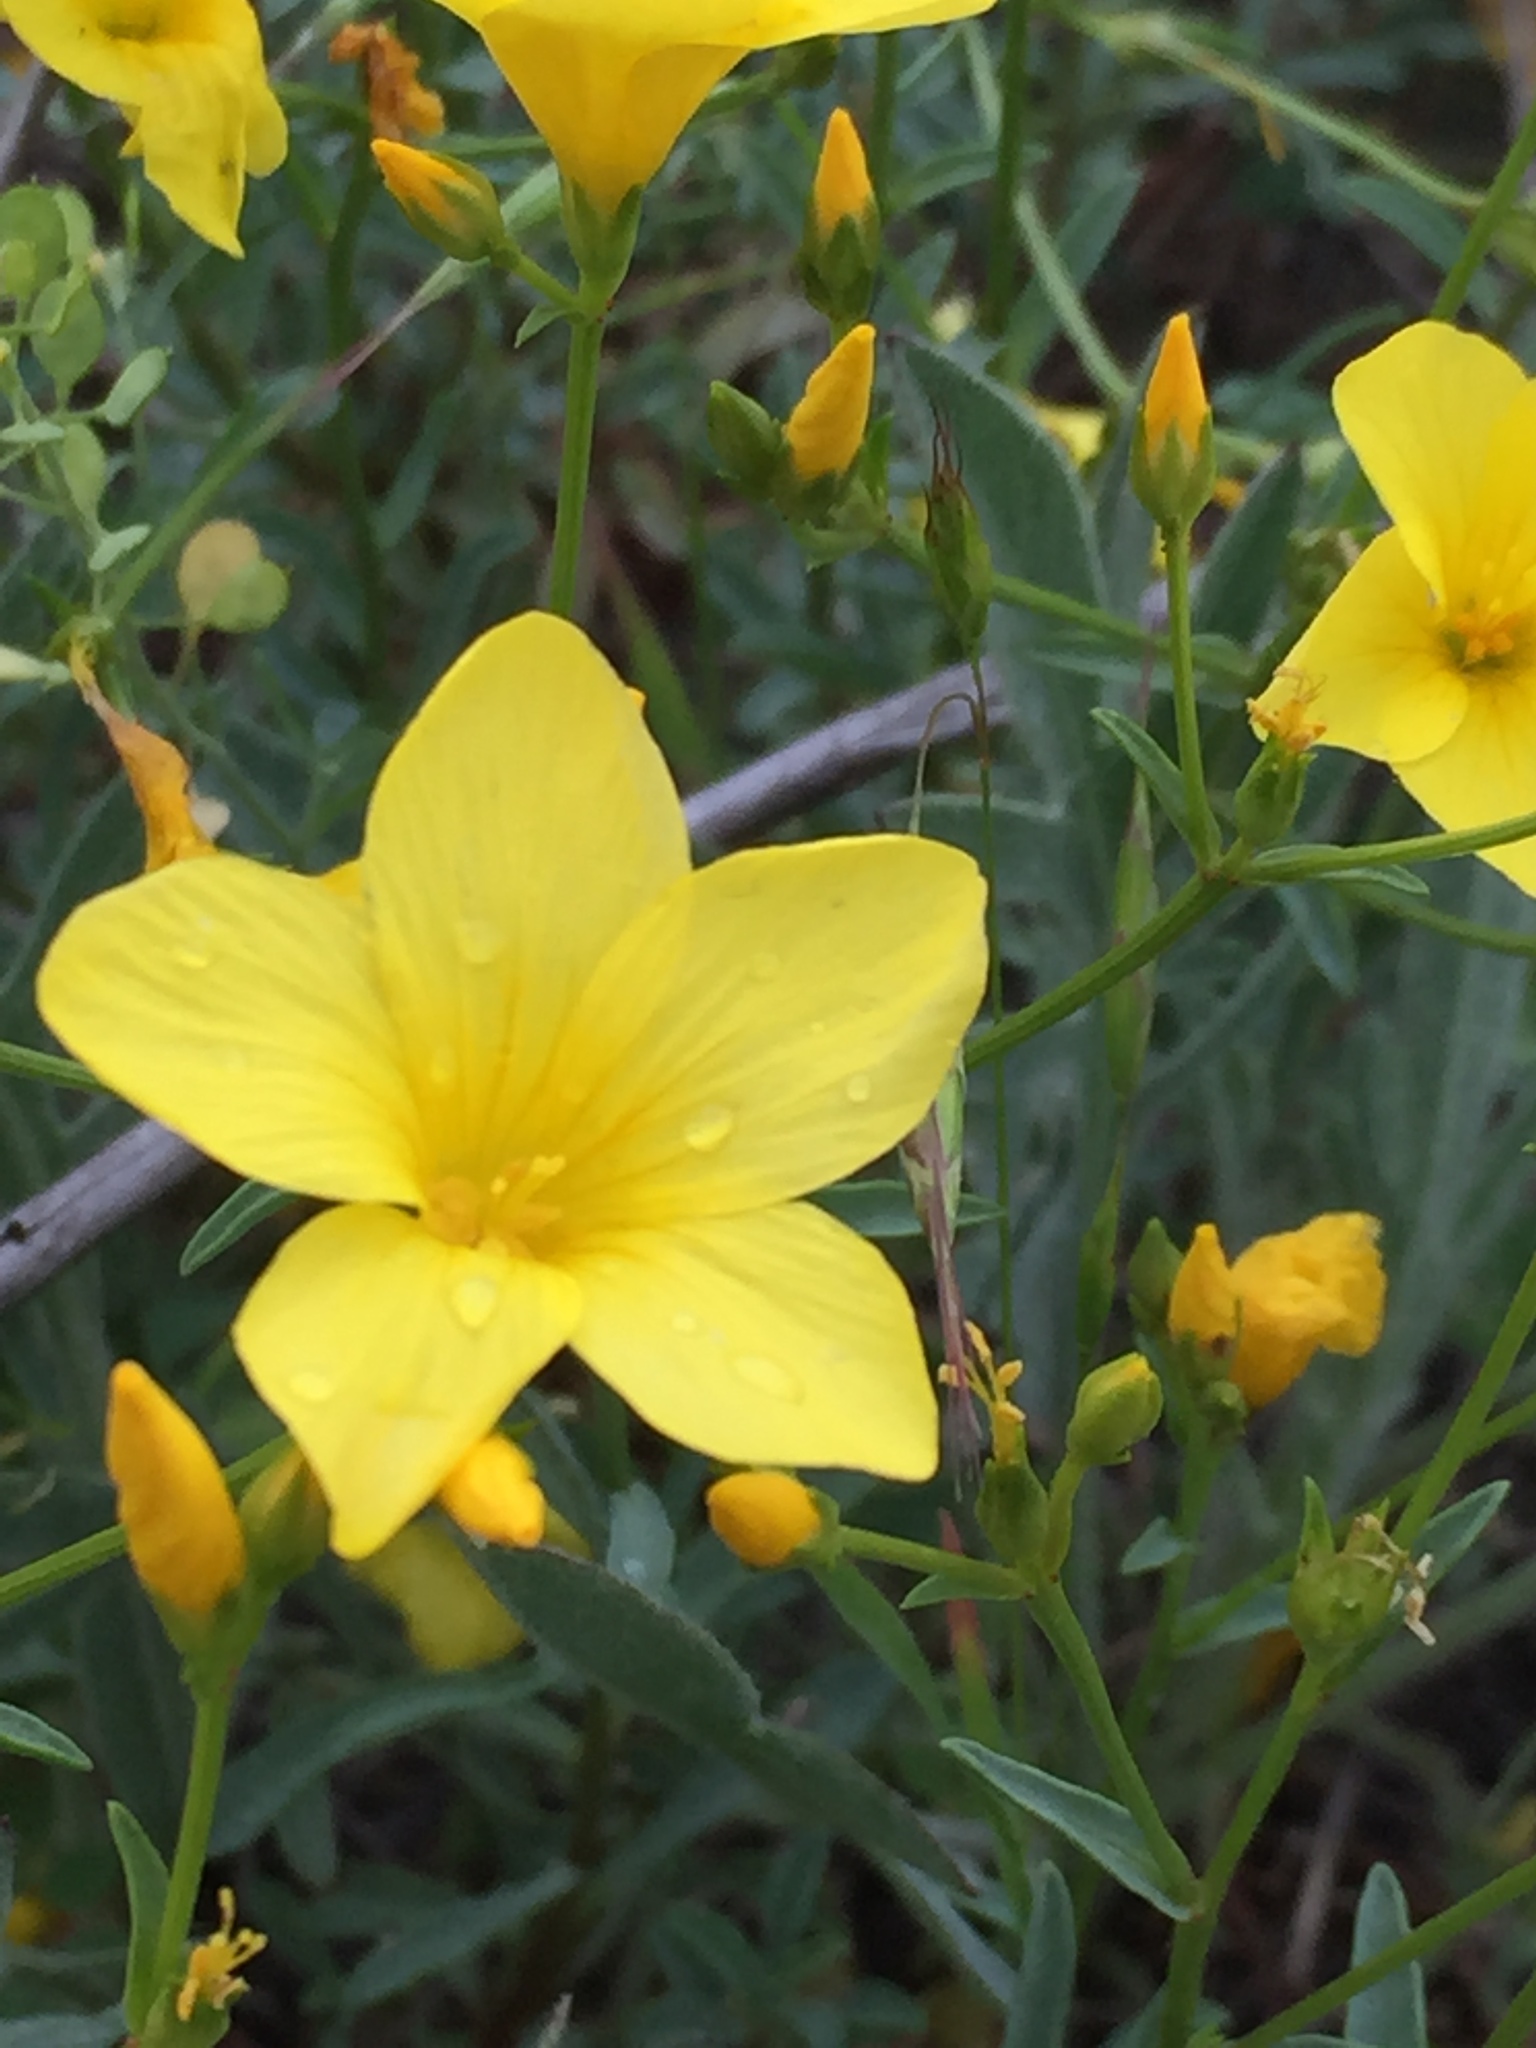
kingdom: Plantae
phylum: Tracheophyta
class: Magnoliopsida
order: Malpighiales
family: Linaceae
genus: Linum
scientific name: Linum ucranicum
